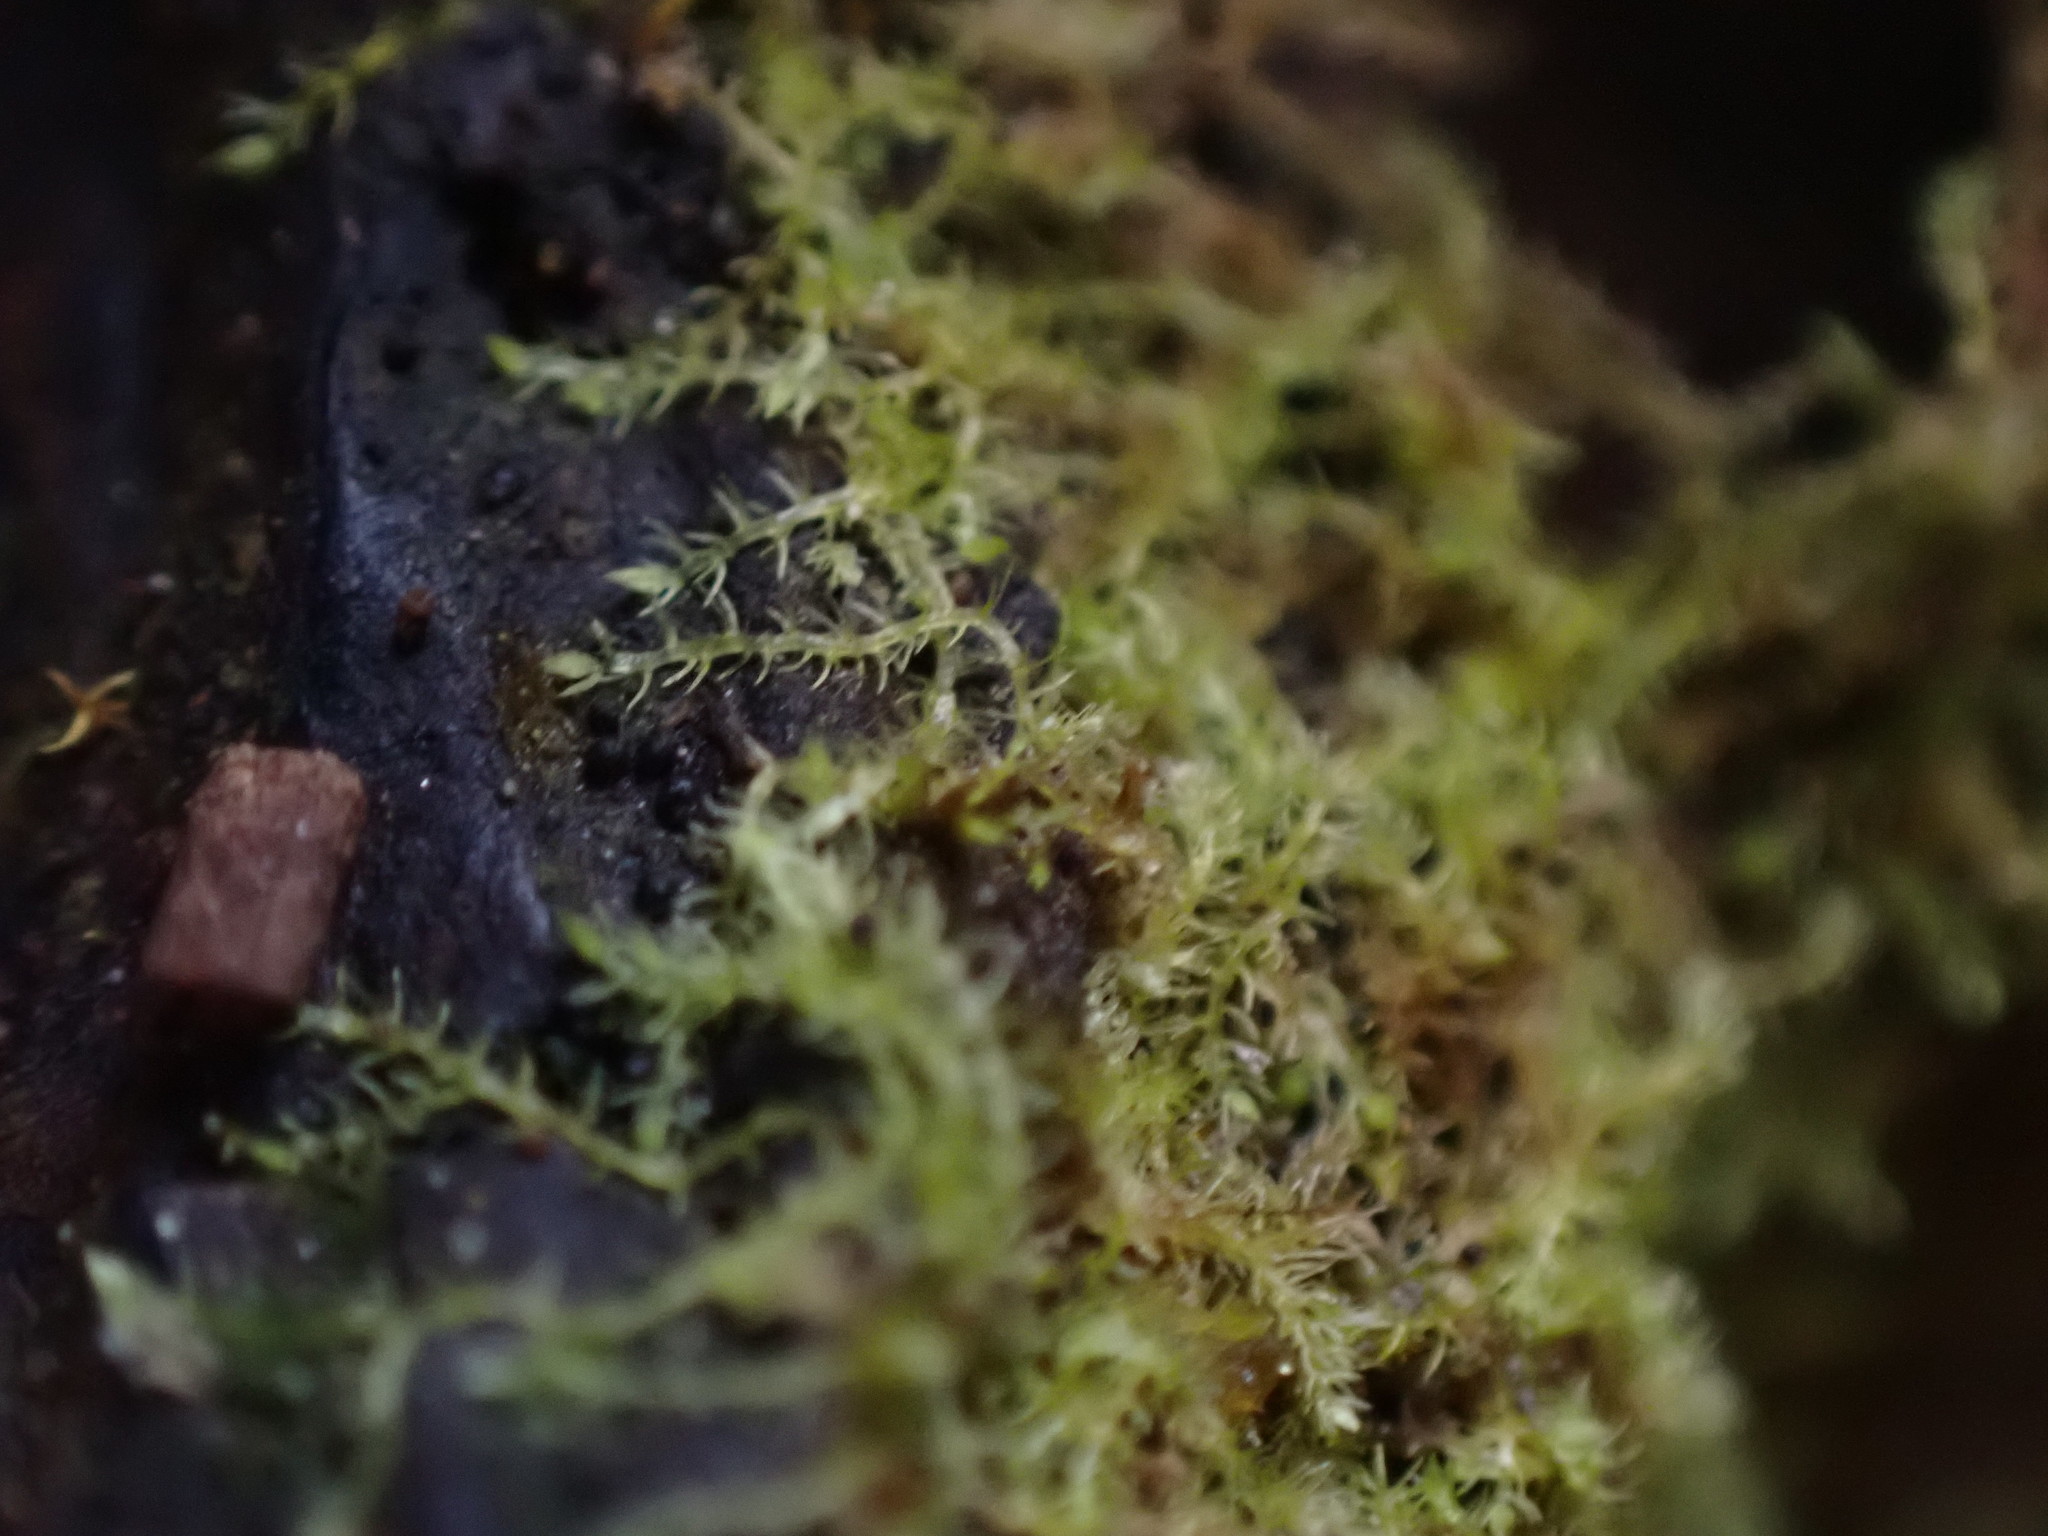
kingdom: Plantae
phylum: Marchantiophyta
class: Jungermanniopsida
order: Jungermanniales
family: Blepharostomataceae
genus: Blepharostoma
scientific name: Blepharostoma trichophyllum
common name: Hairy threadwort
